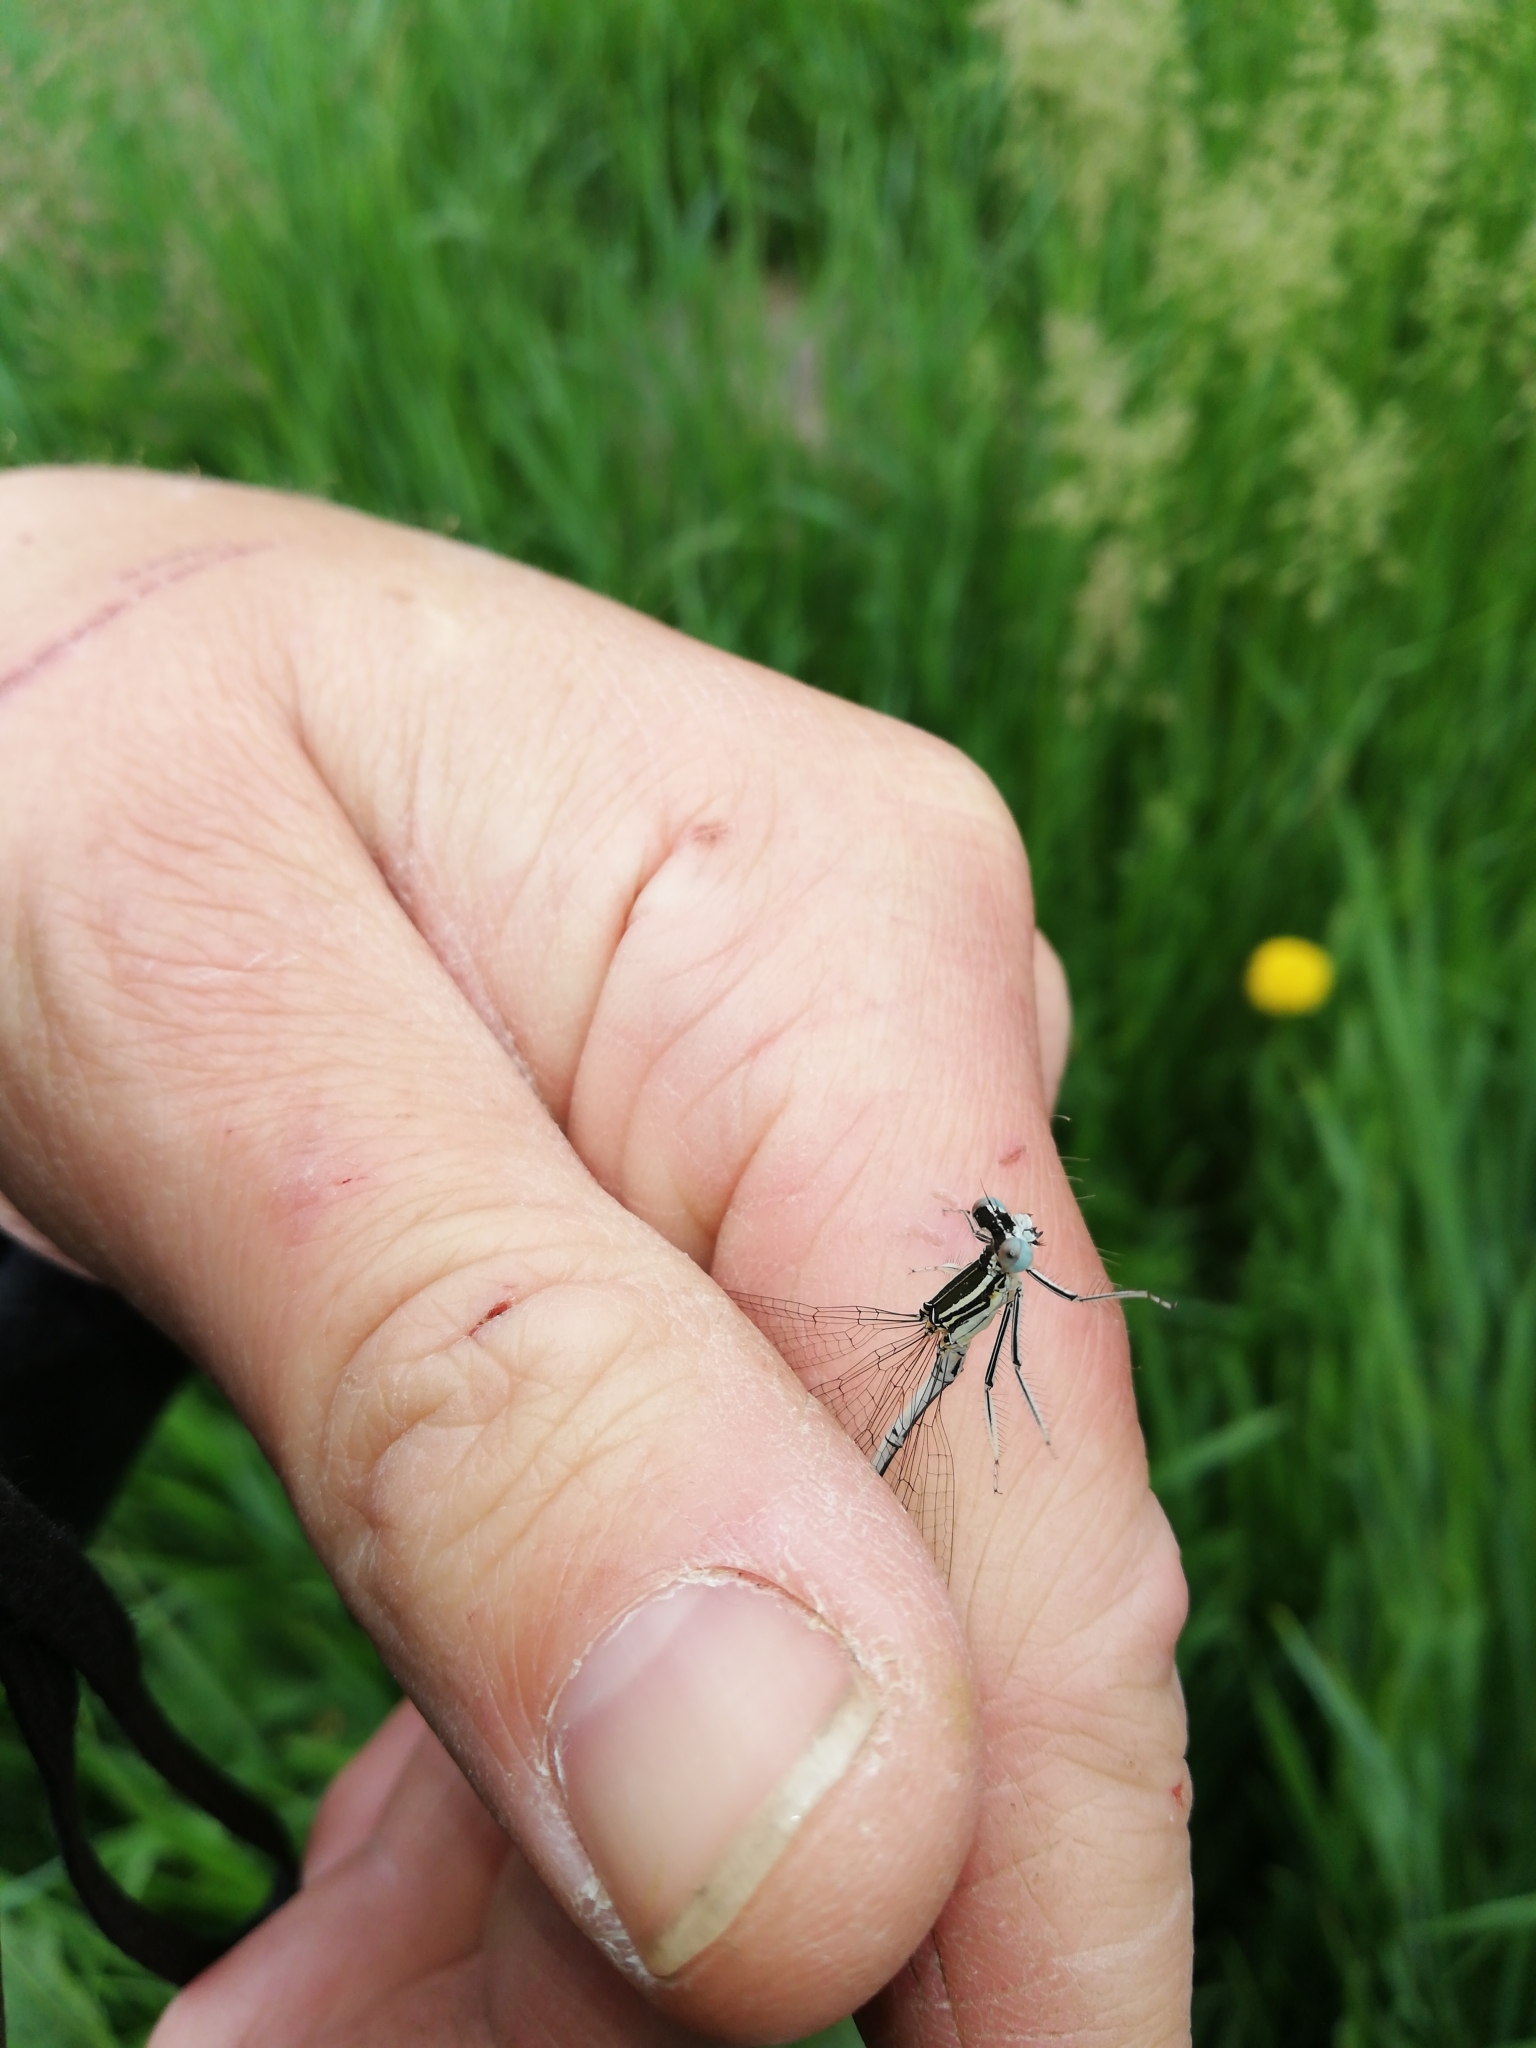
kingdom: Animalia
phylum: Arthropoda
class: Insecta
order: Odonata
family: Platycnemididae
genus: Platycnemis
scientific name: Platycnemis pennipes
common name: White-legged damselfly
